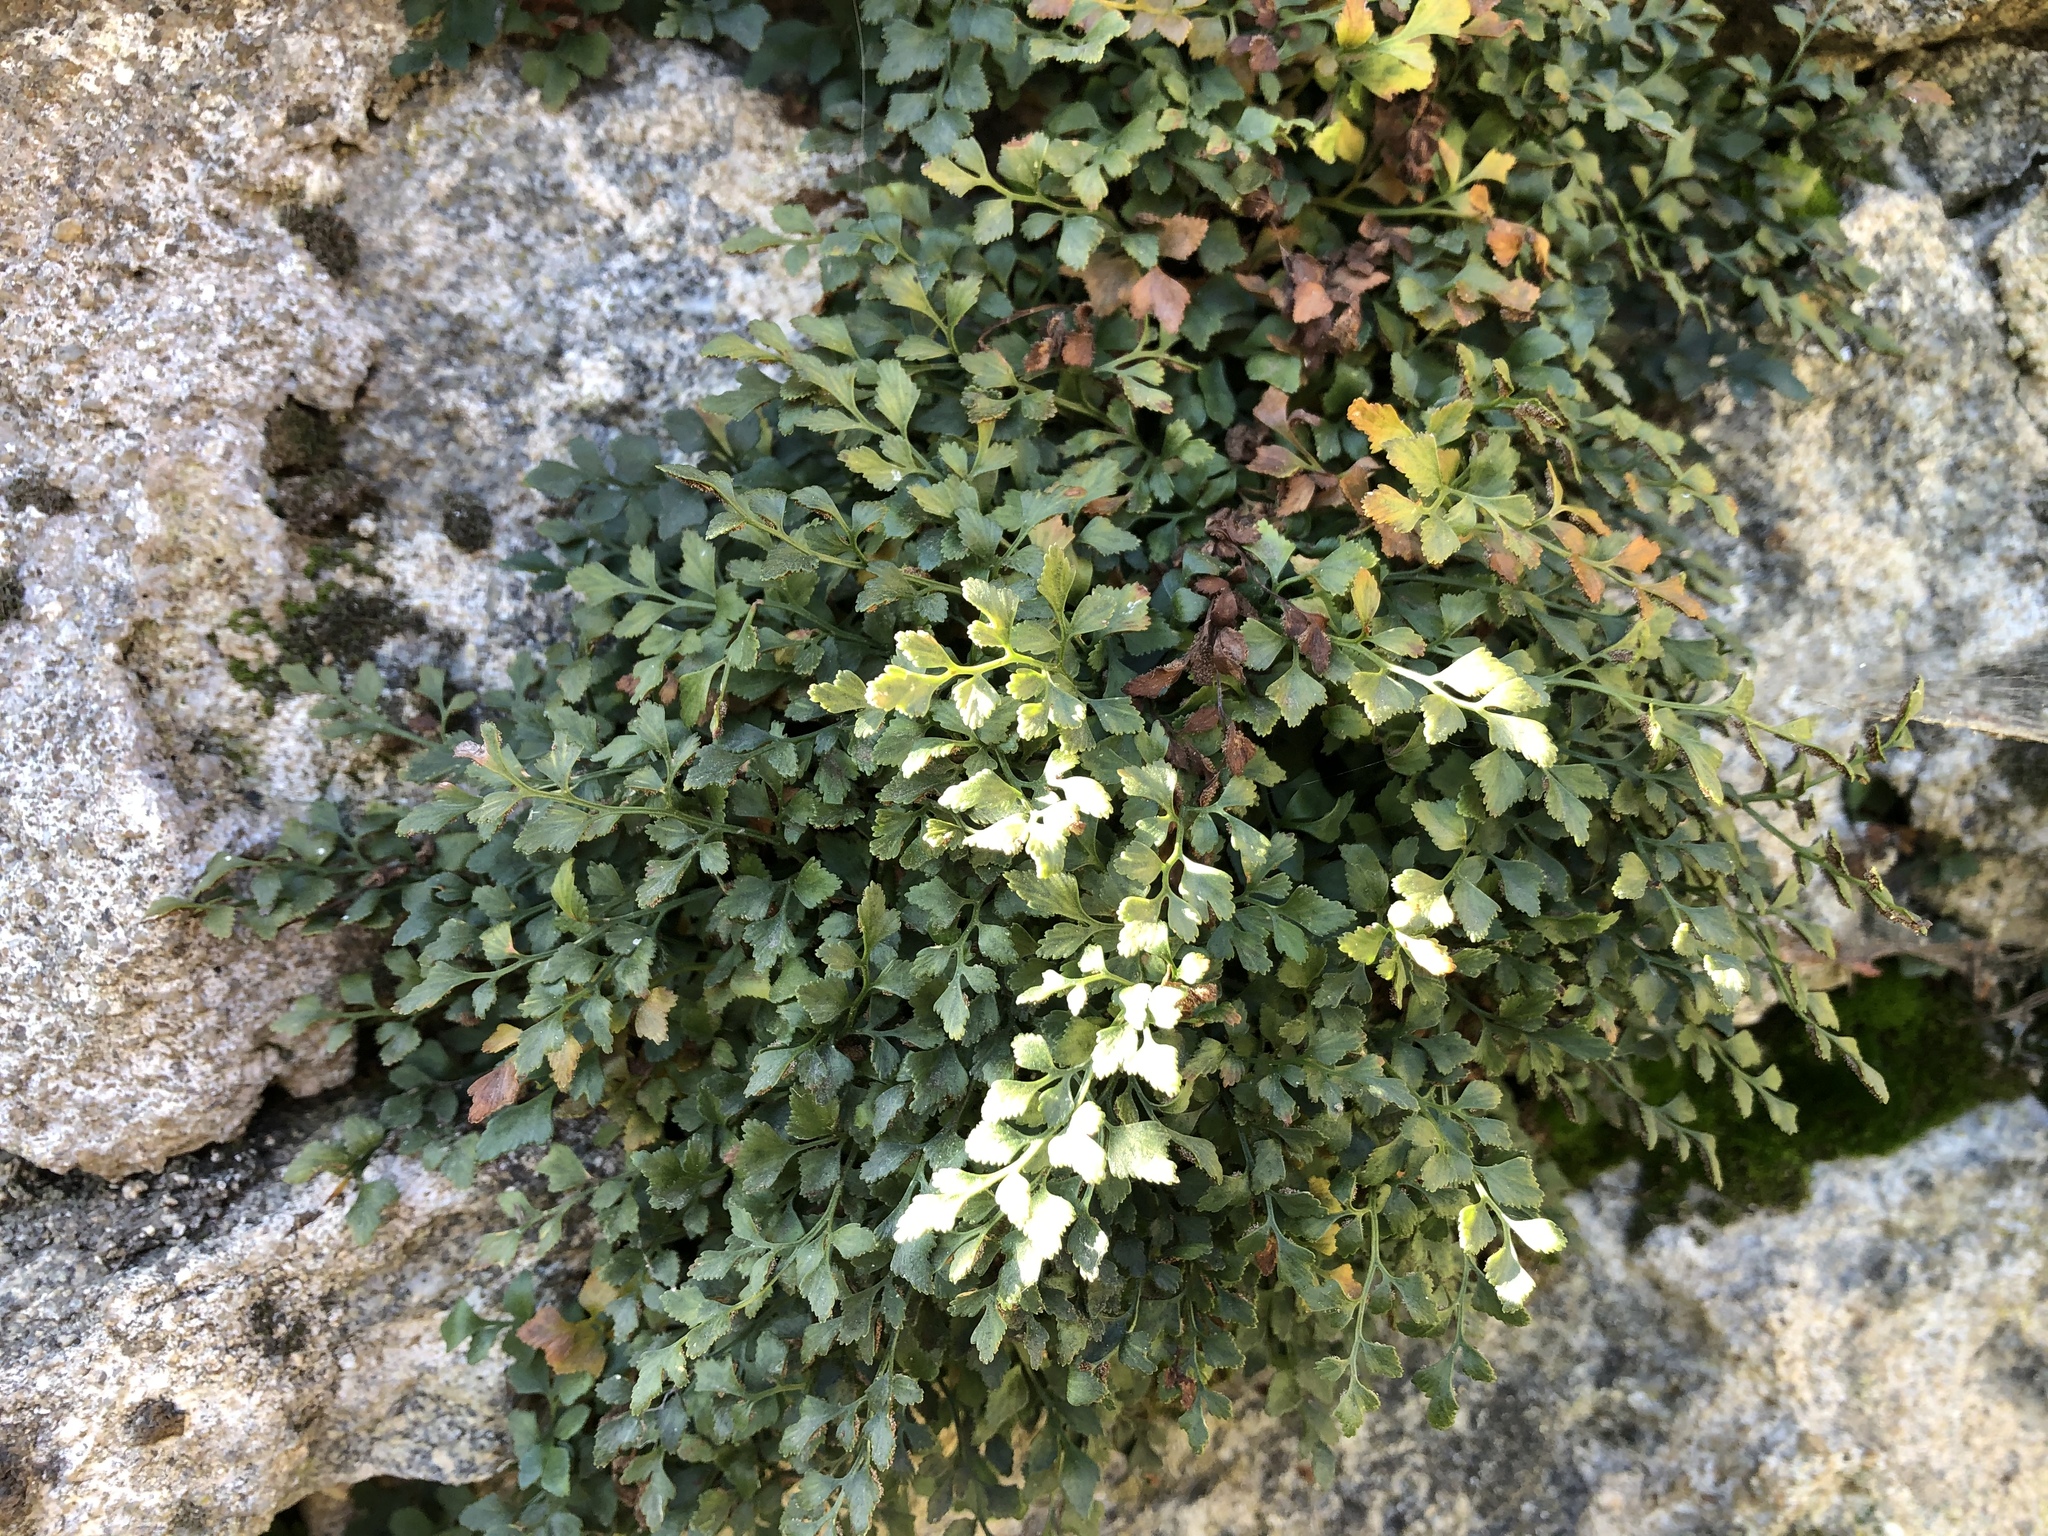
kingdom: Plantae
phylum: Tracheophyta
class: Polypodiopsida
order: Polypodiales
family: Aspleniaceae
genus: Asplenium
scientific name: Asplenium ruta-muraria
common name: Wall-rue
